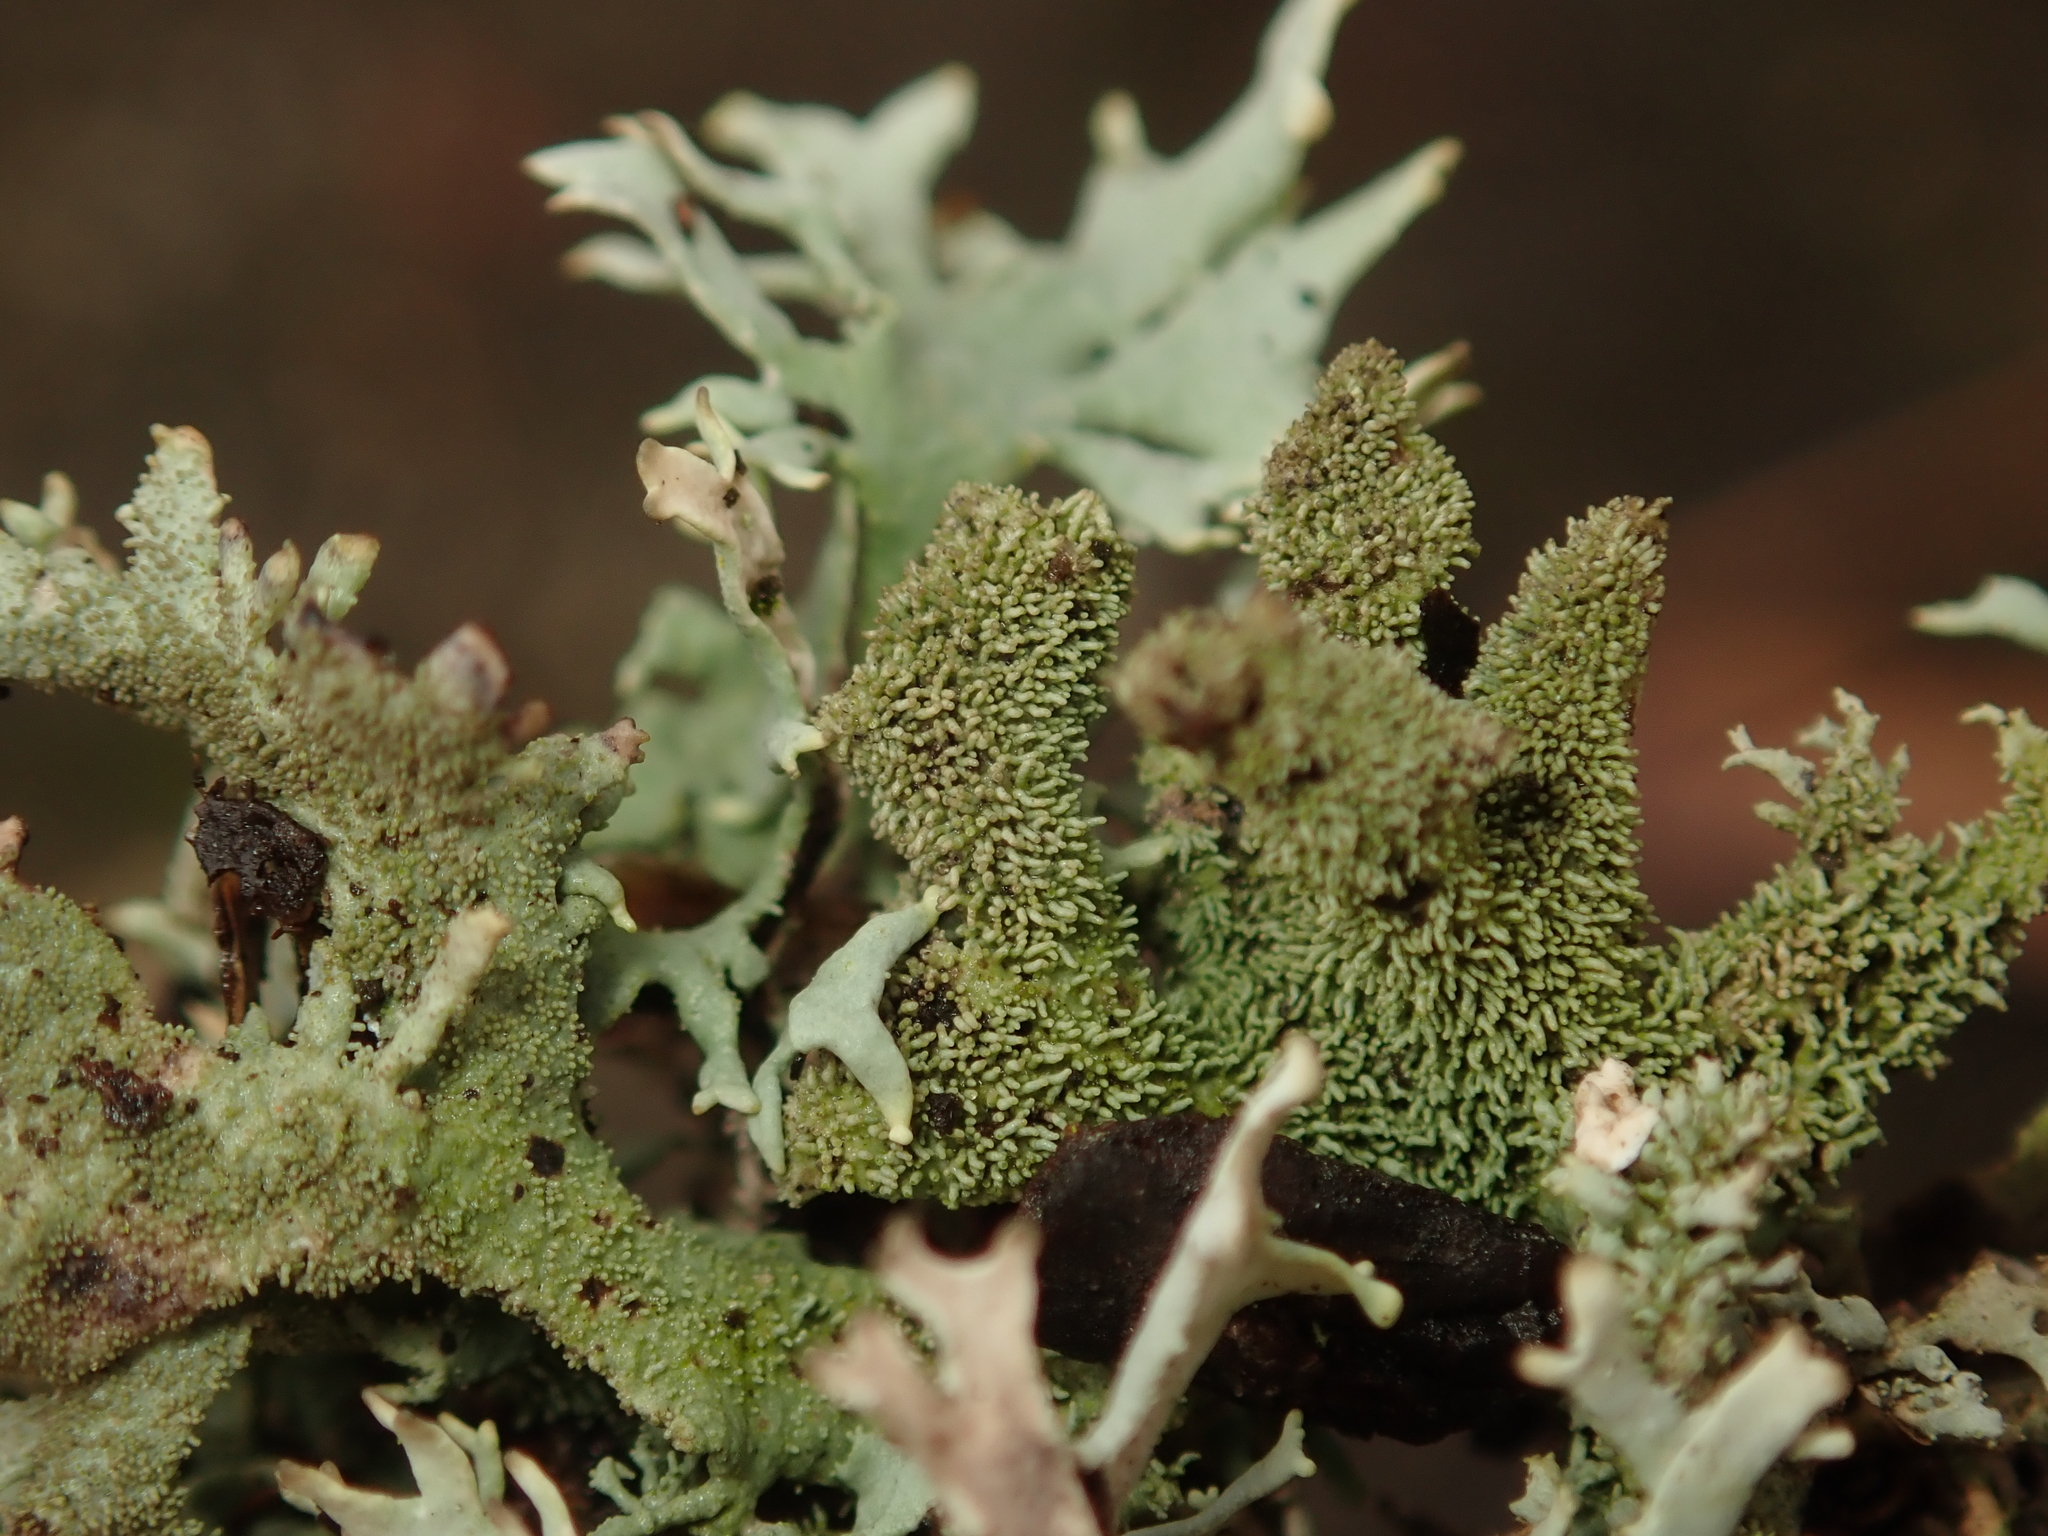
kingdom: Fungi
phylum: Ascomycota
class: Lecanoromycetes
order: Lecanorales
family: Parmeliaceae
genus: Pseudevernia
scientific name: Pseudevernia furfuracea
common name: Tree moss
